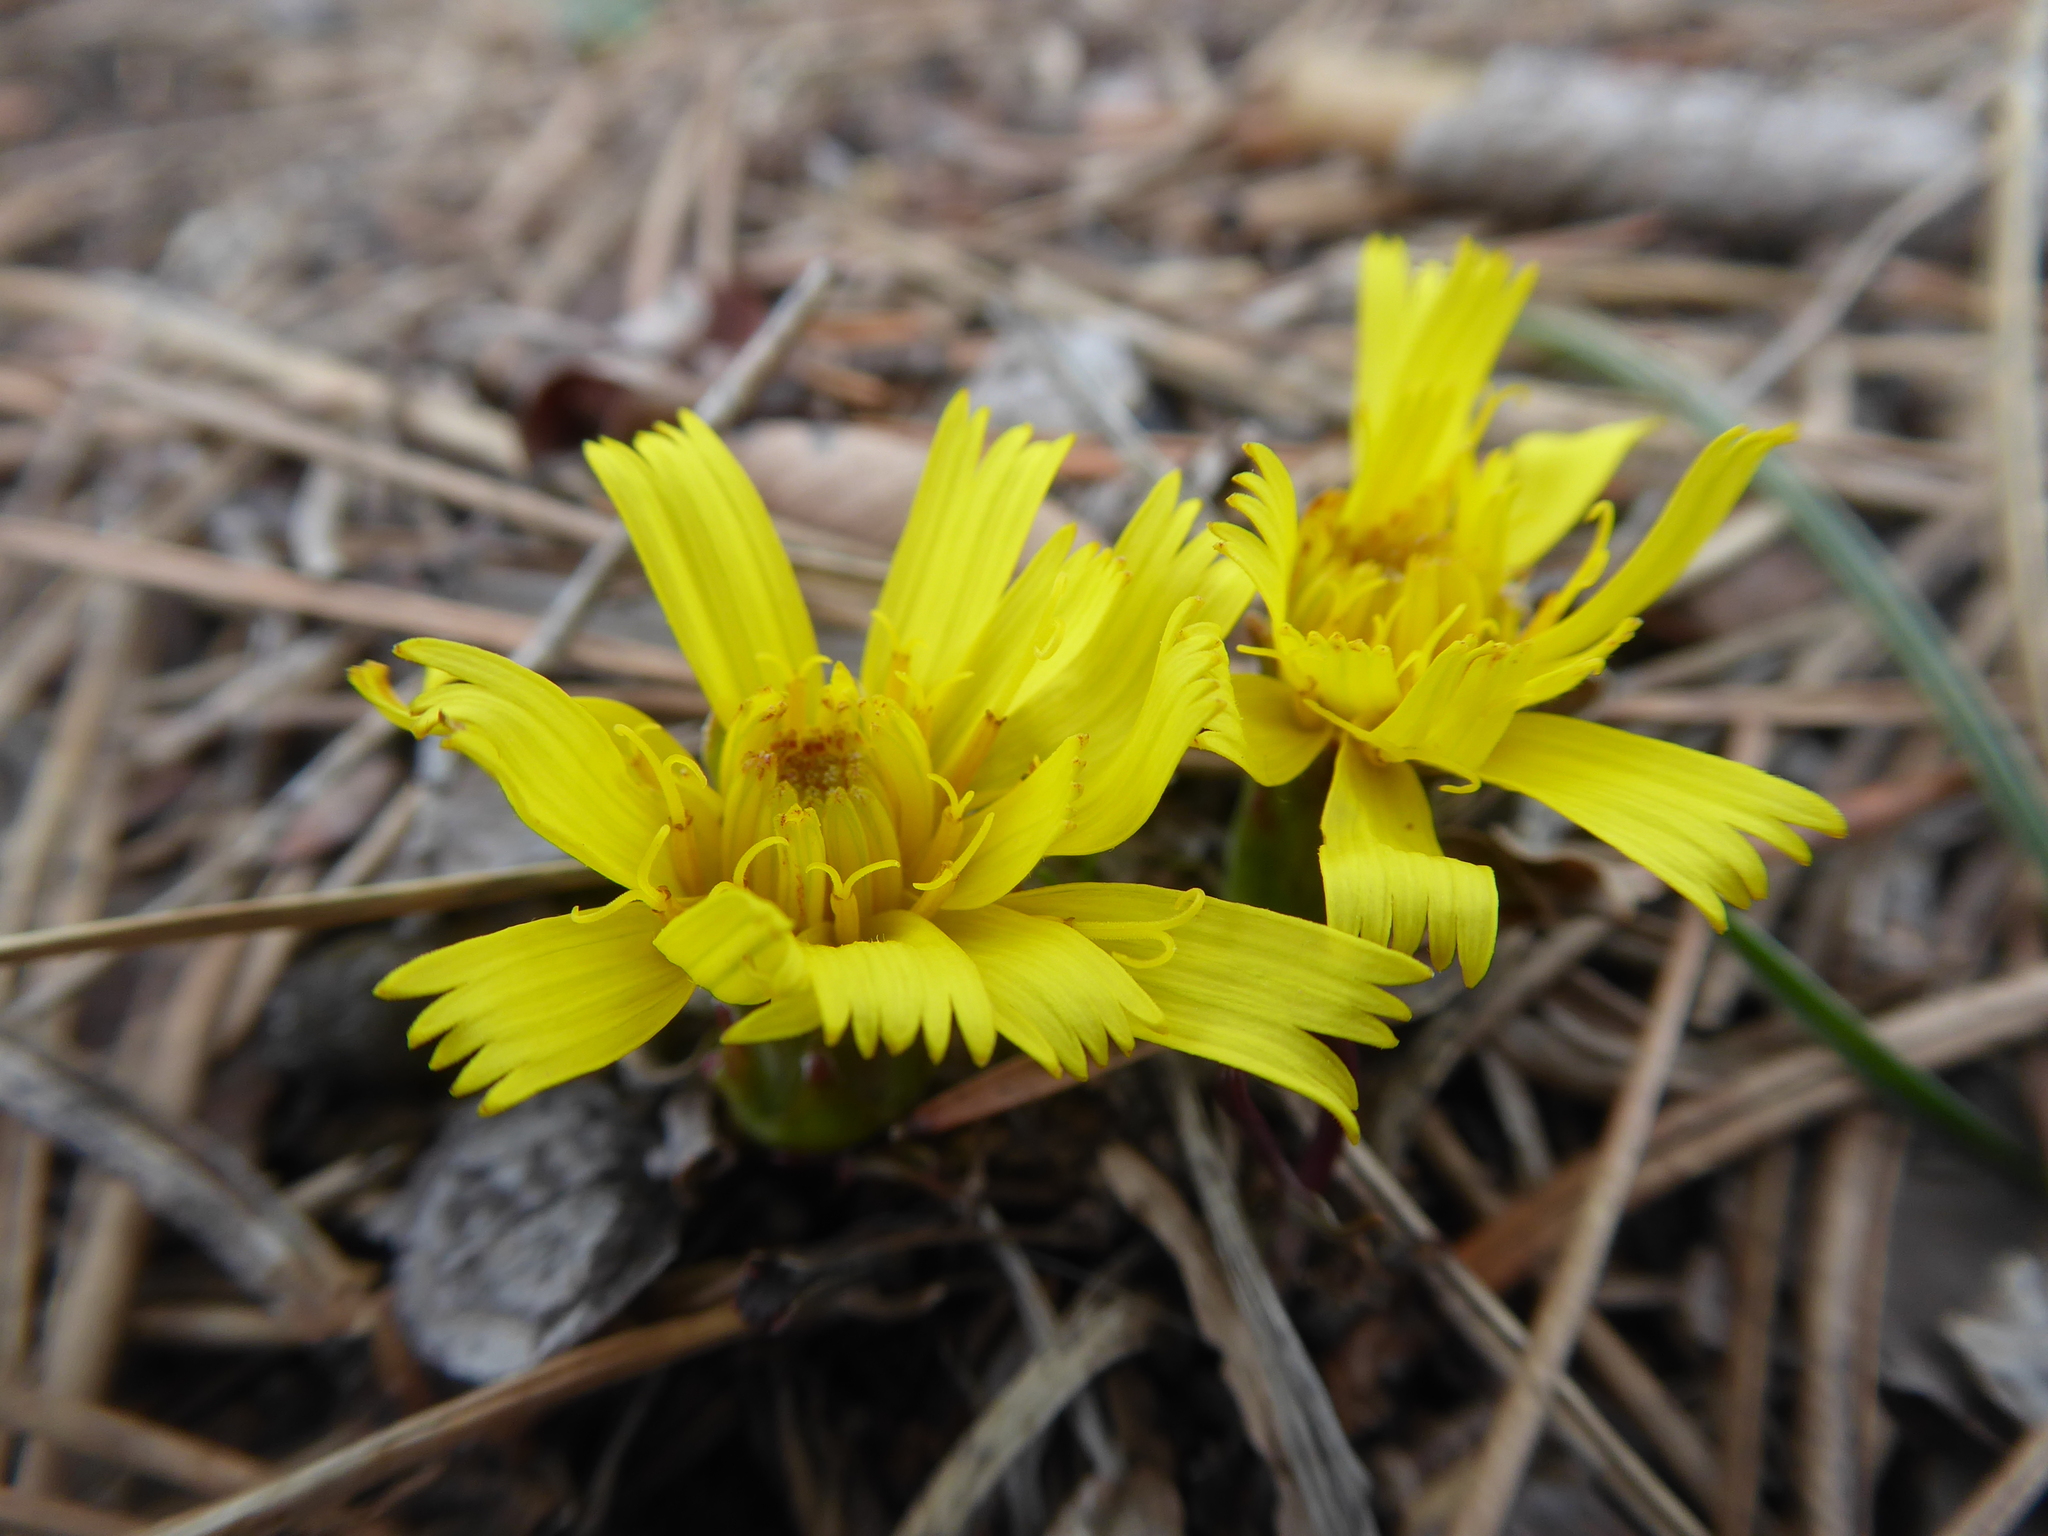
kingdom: Plantae
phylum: Tracheophyta
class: Magnoliopsida
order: Asterales
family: Asteraceae
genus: Takhtajaniantha
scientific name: Takhtajaniantha austriaca
